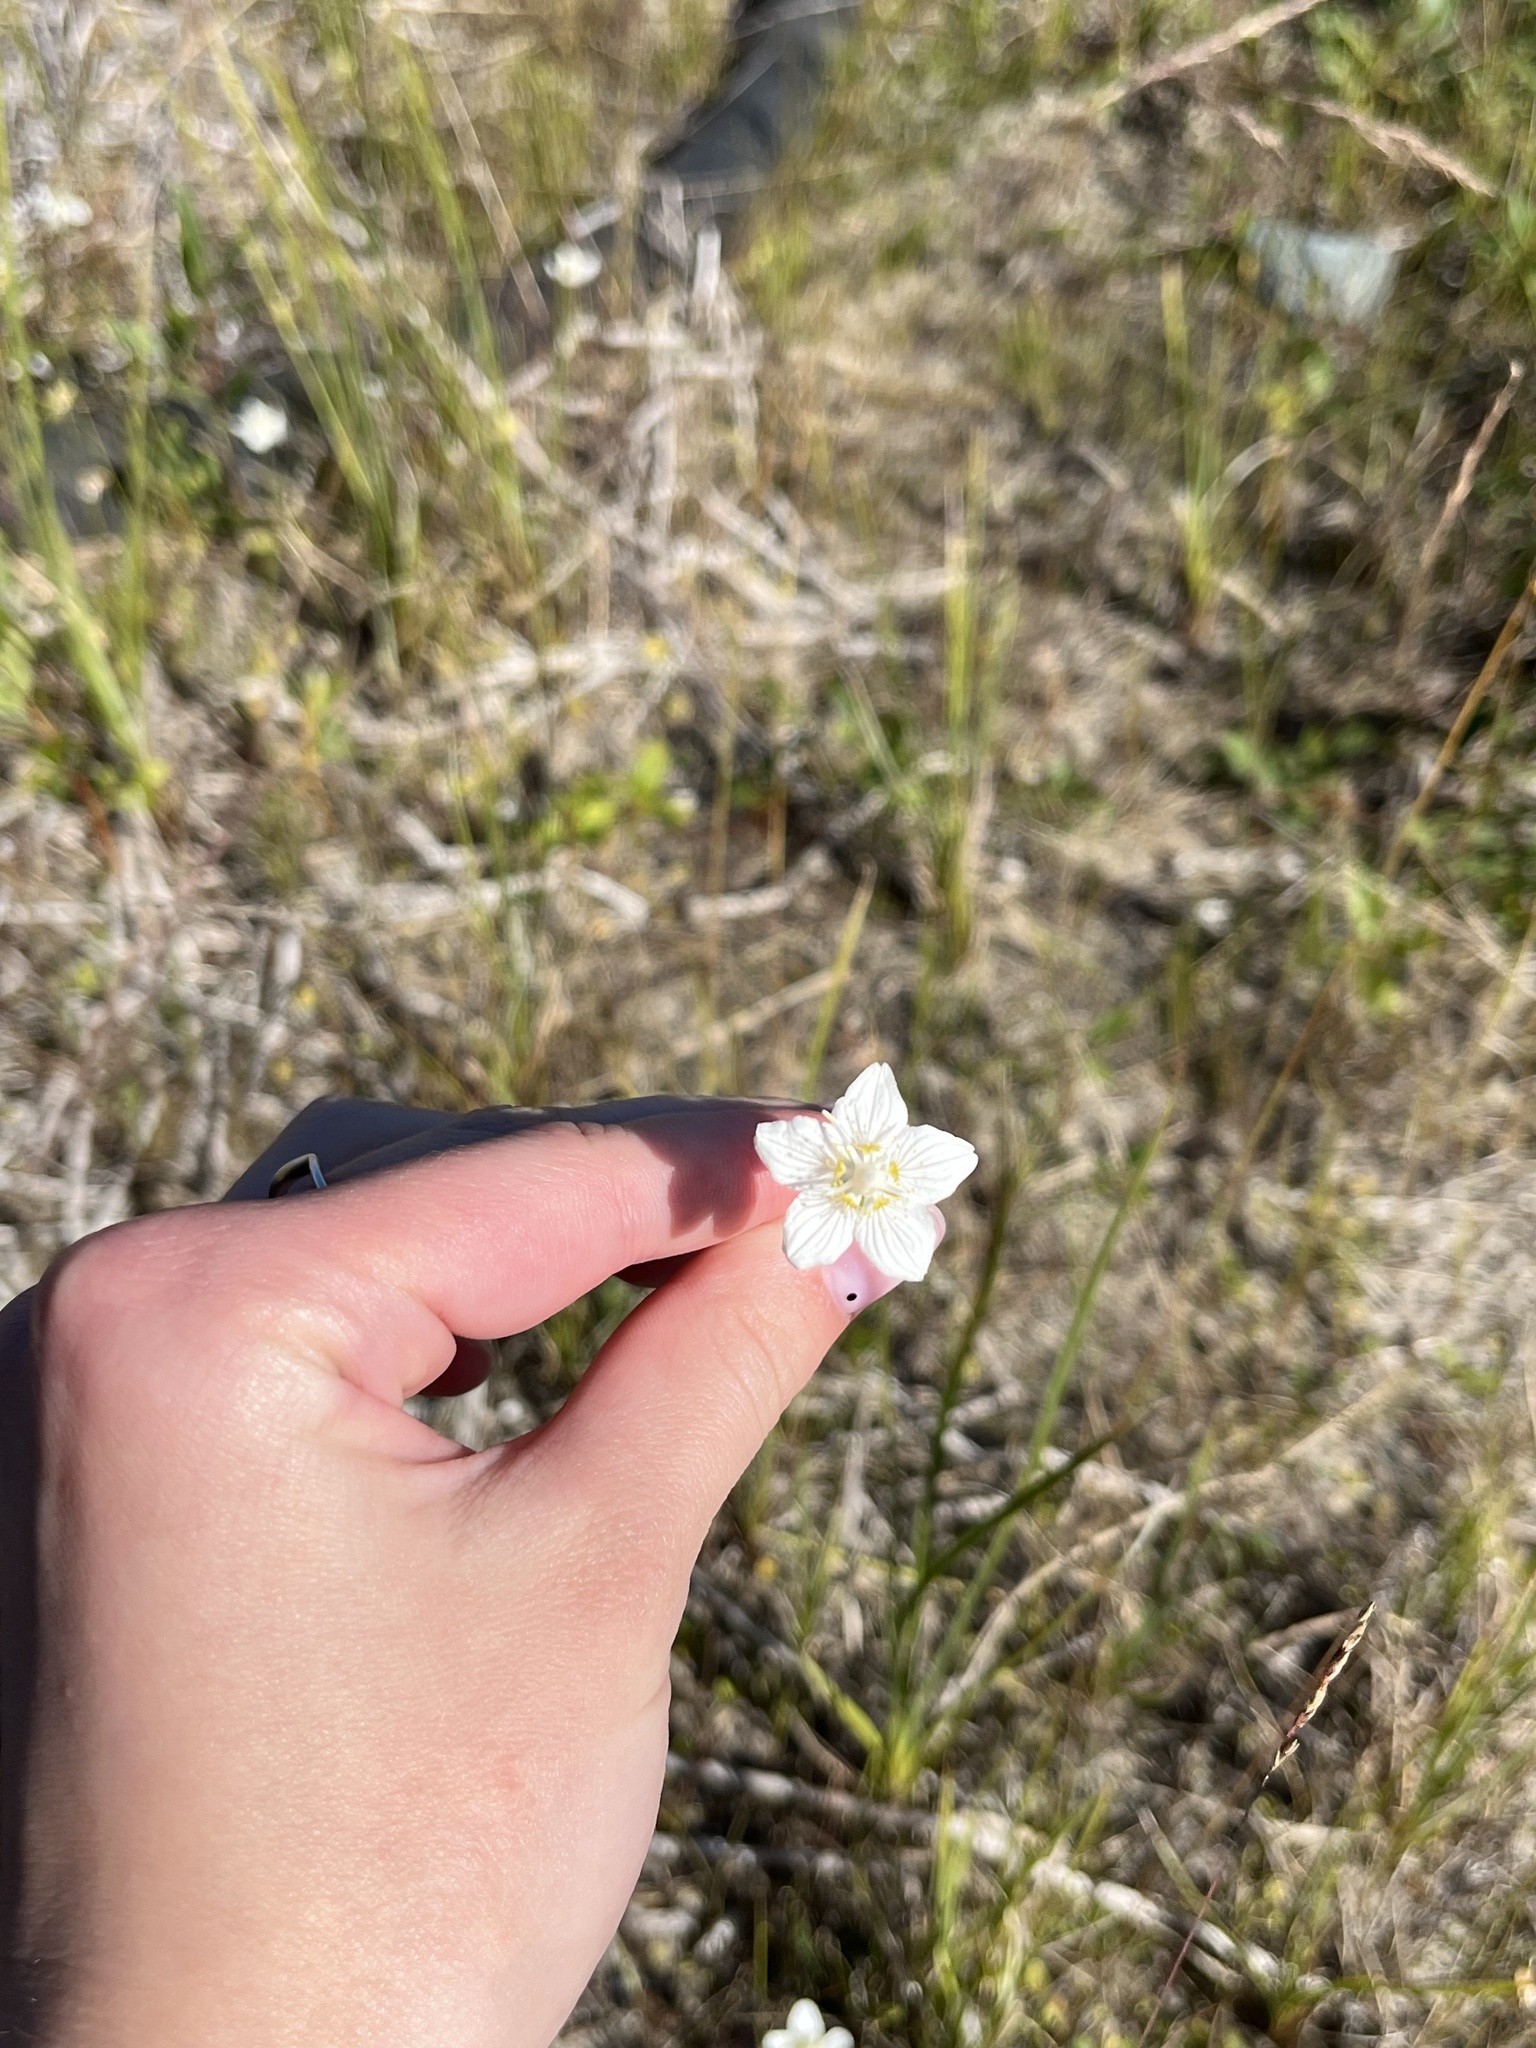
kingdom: Plantae
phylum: Tracheophyta
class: Magnoliopsida
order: Celastrales
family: Parnassiaceae
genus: Parnassia
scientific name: Parnassia palustris
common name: Grass-of-parnassus
